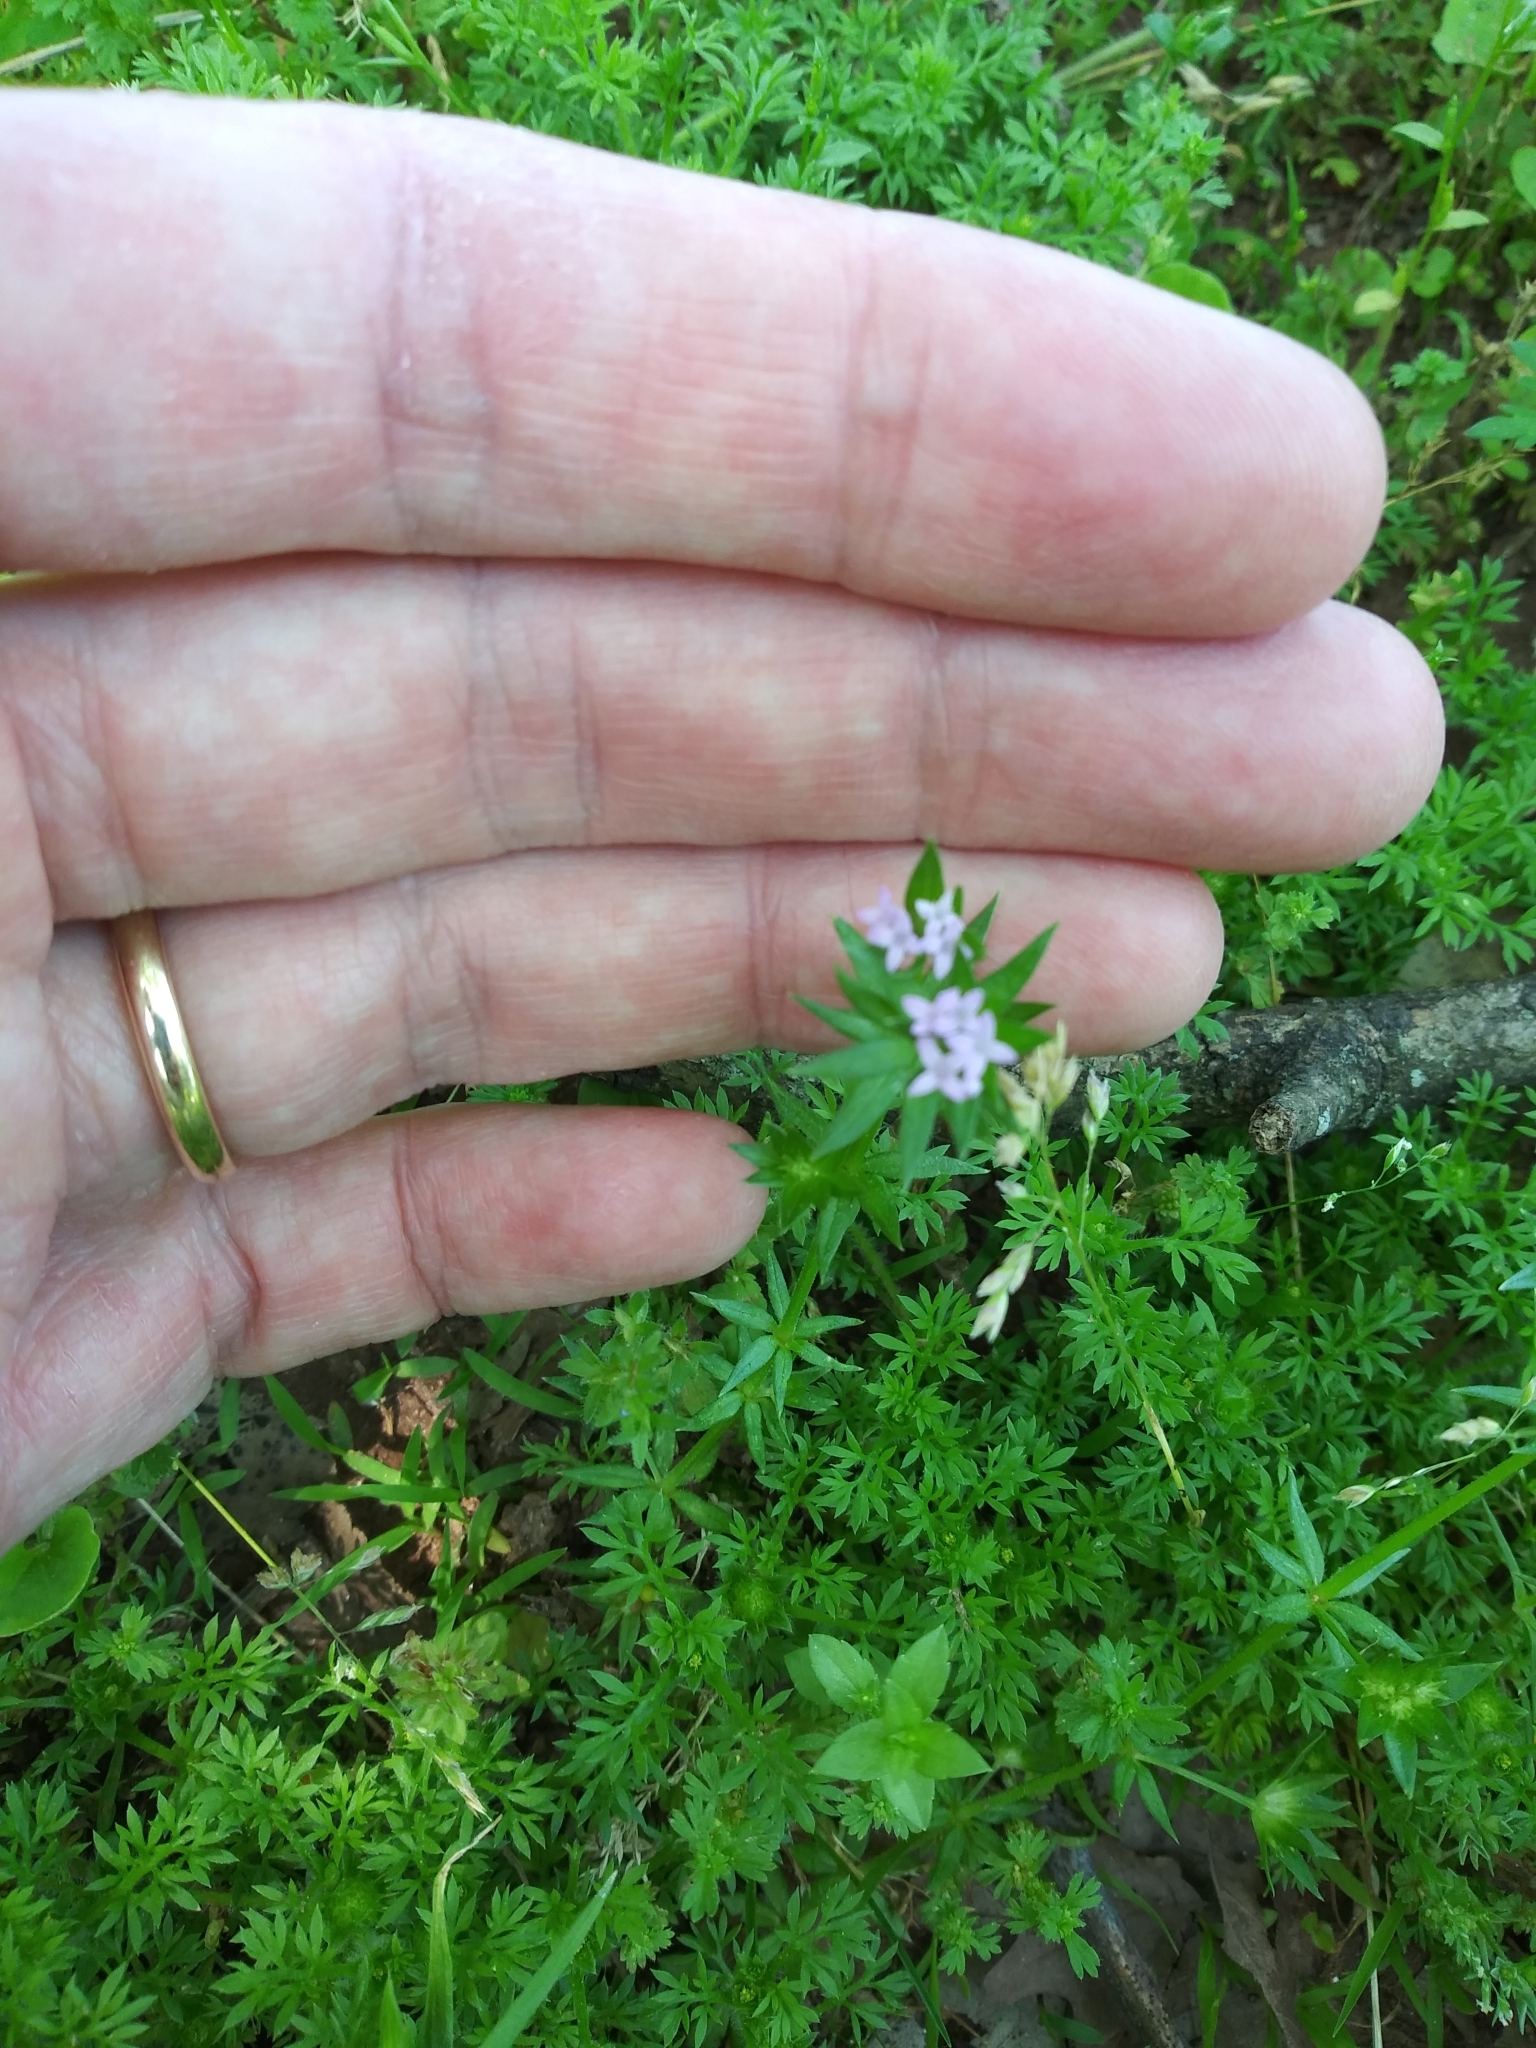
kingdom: Plantae
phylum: Tracheophyta
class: Magnoliopsida
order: Gentianales
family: Rubiaceae
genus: Sherardia
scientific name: Sherardia arvensis
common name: Field madder
